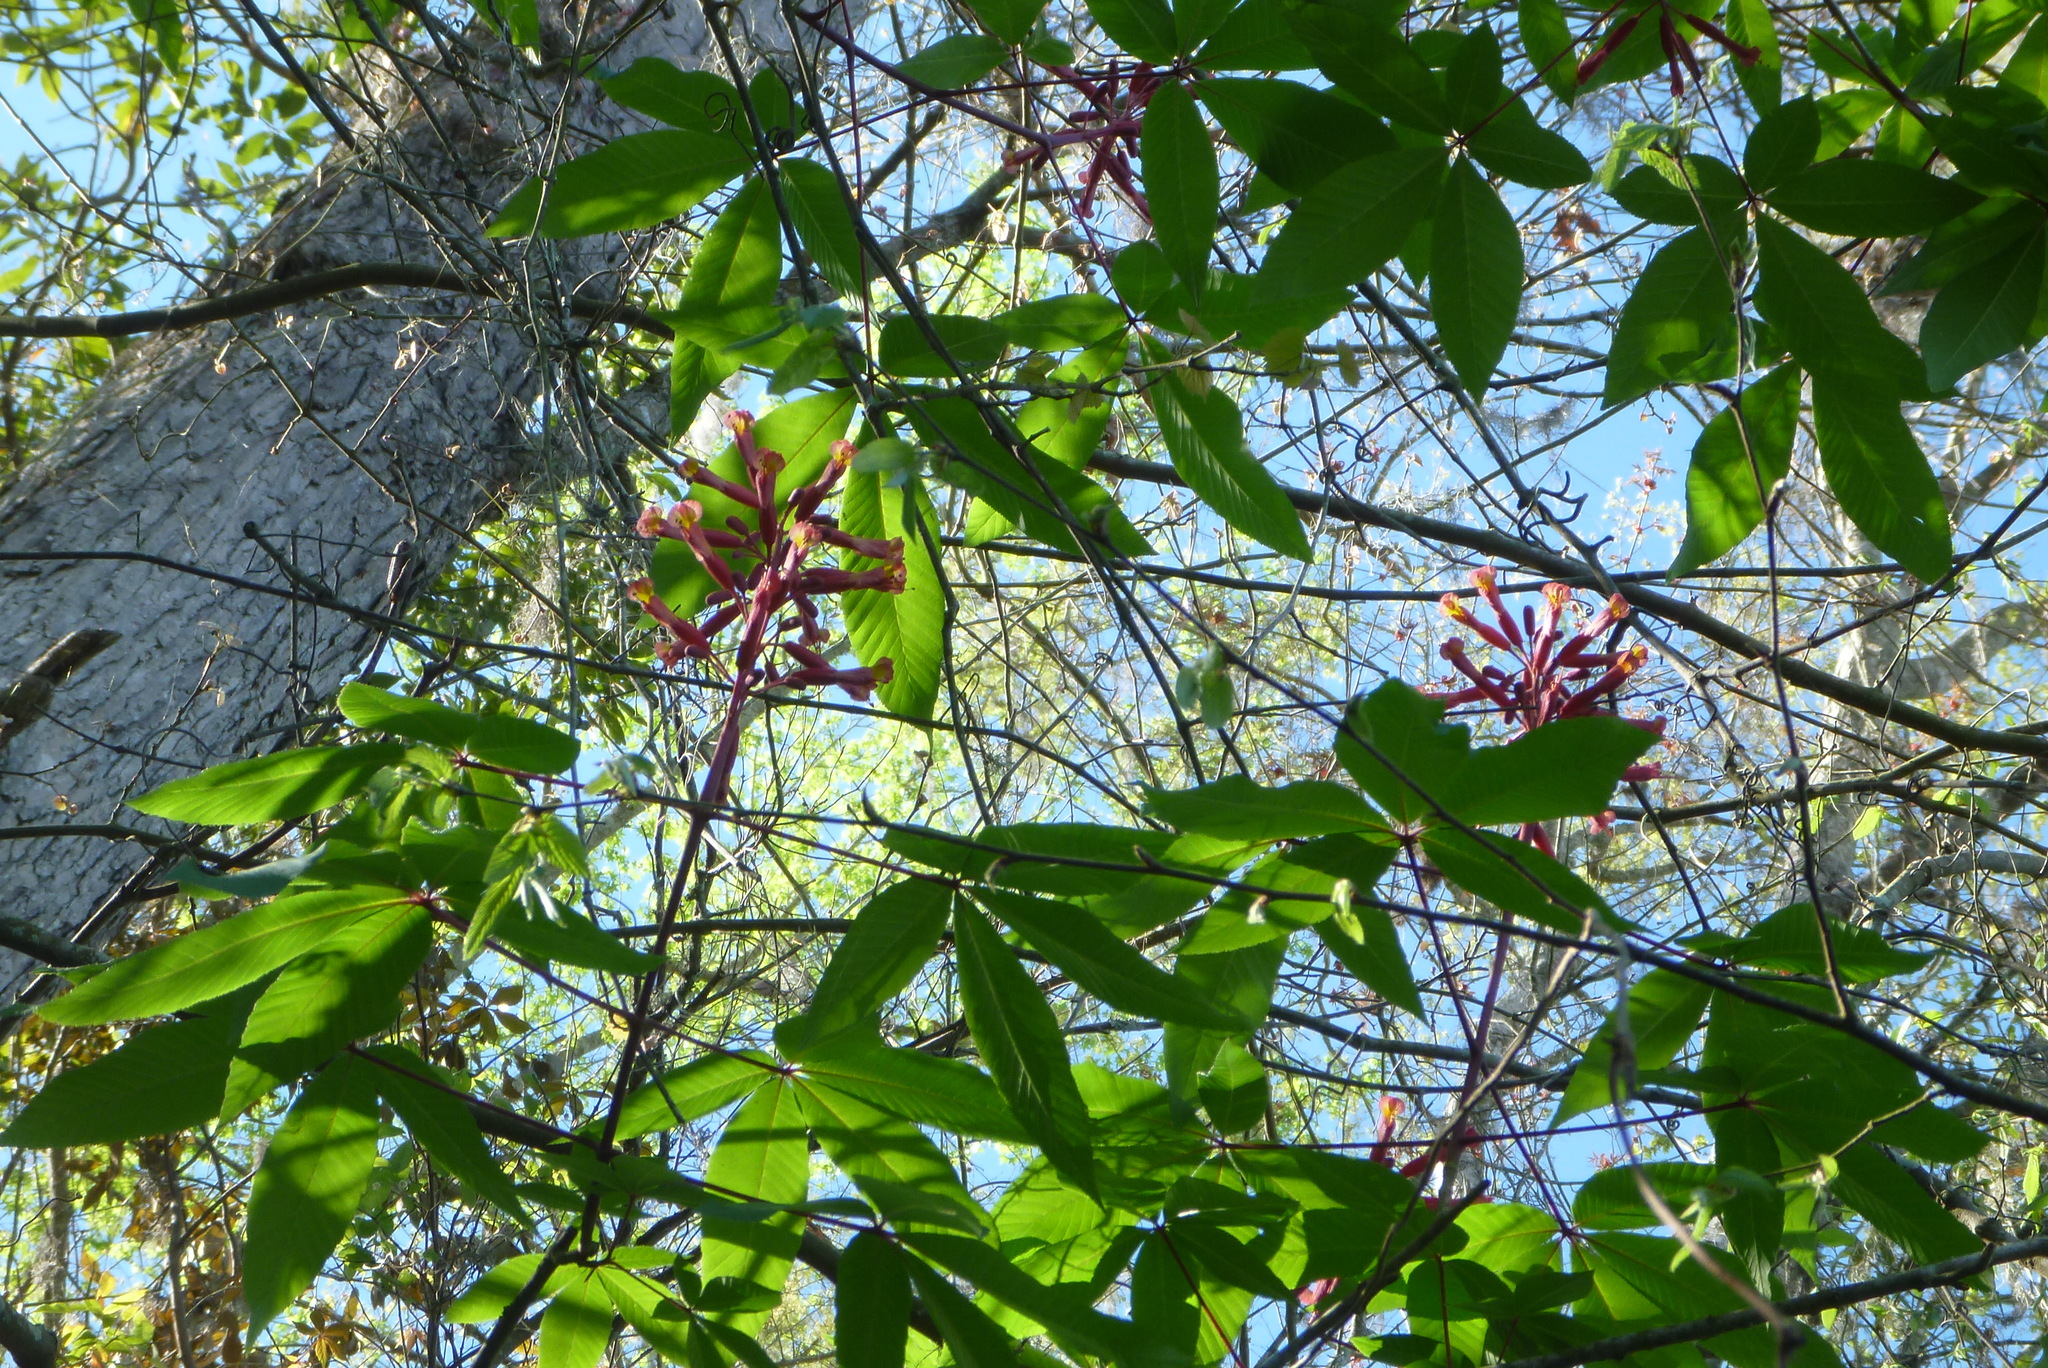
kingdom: Plantae
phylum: Tracheophyta
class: Magnoliopsida
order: Sapindales
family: Sapindaceae
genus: Aesculus
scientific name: Aesculus pavia
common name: Red buckeye
